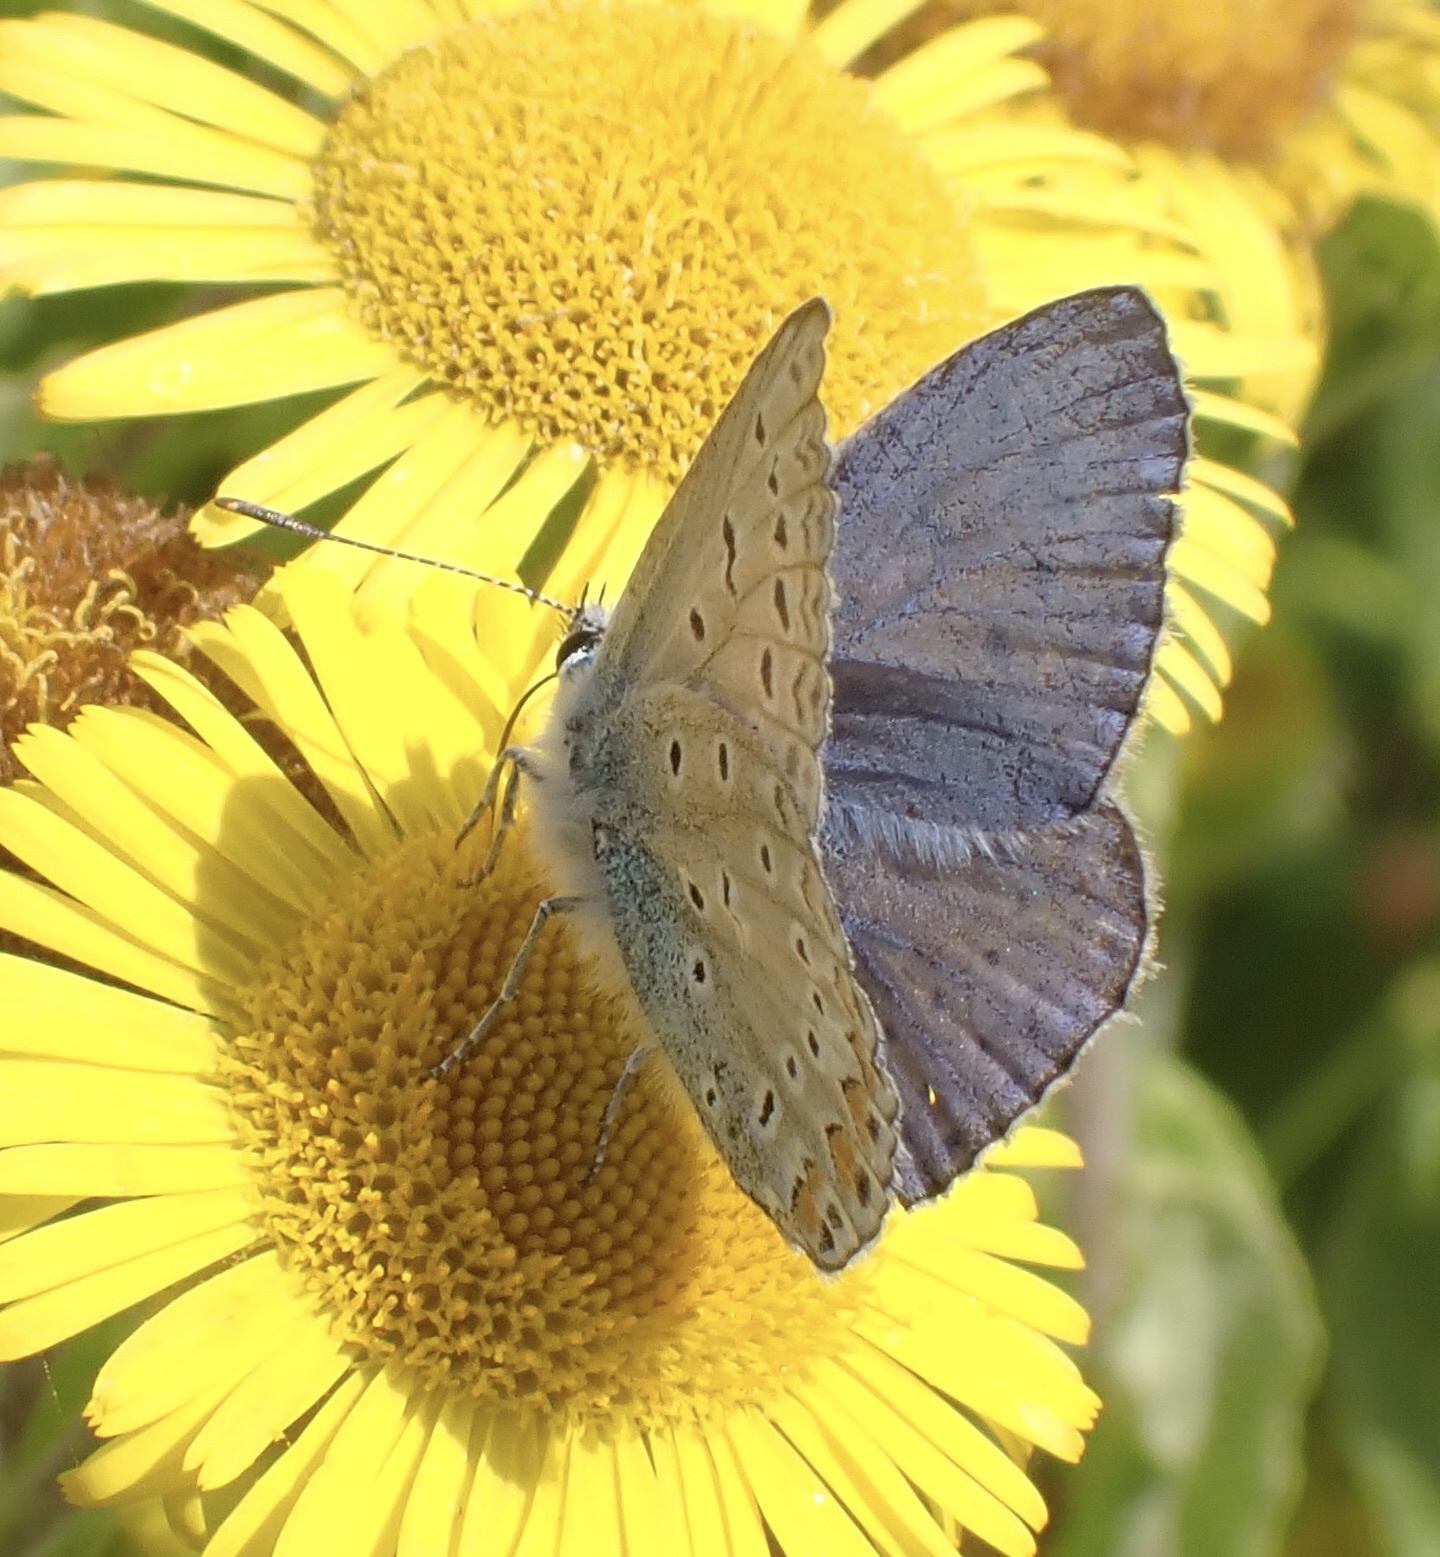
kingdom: Animalia
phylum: Arthropoda
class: Insecta
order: Lepidoptera
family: Lycaenidae
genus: Polyommatus
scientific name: Polyommatus icarus
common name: Common blue
